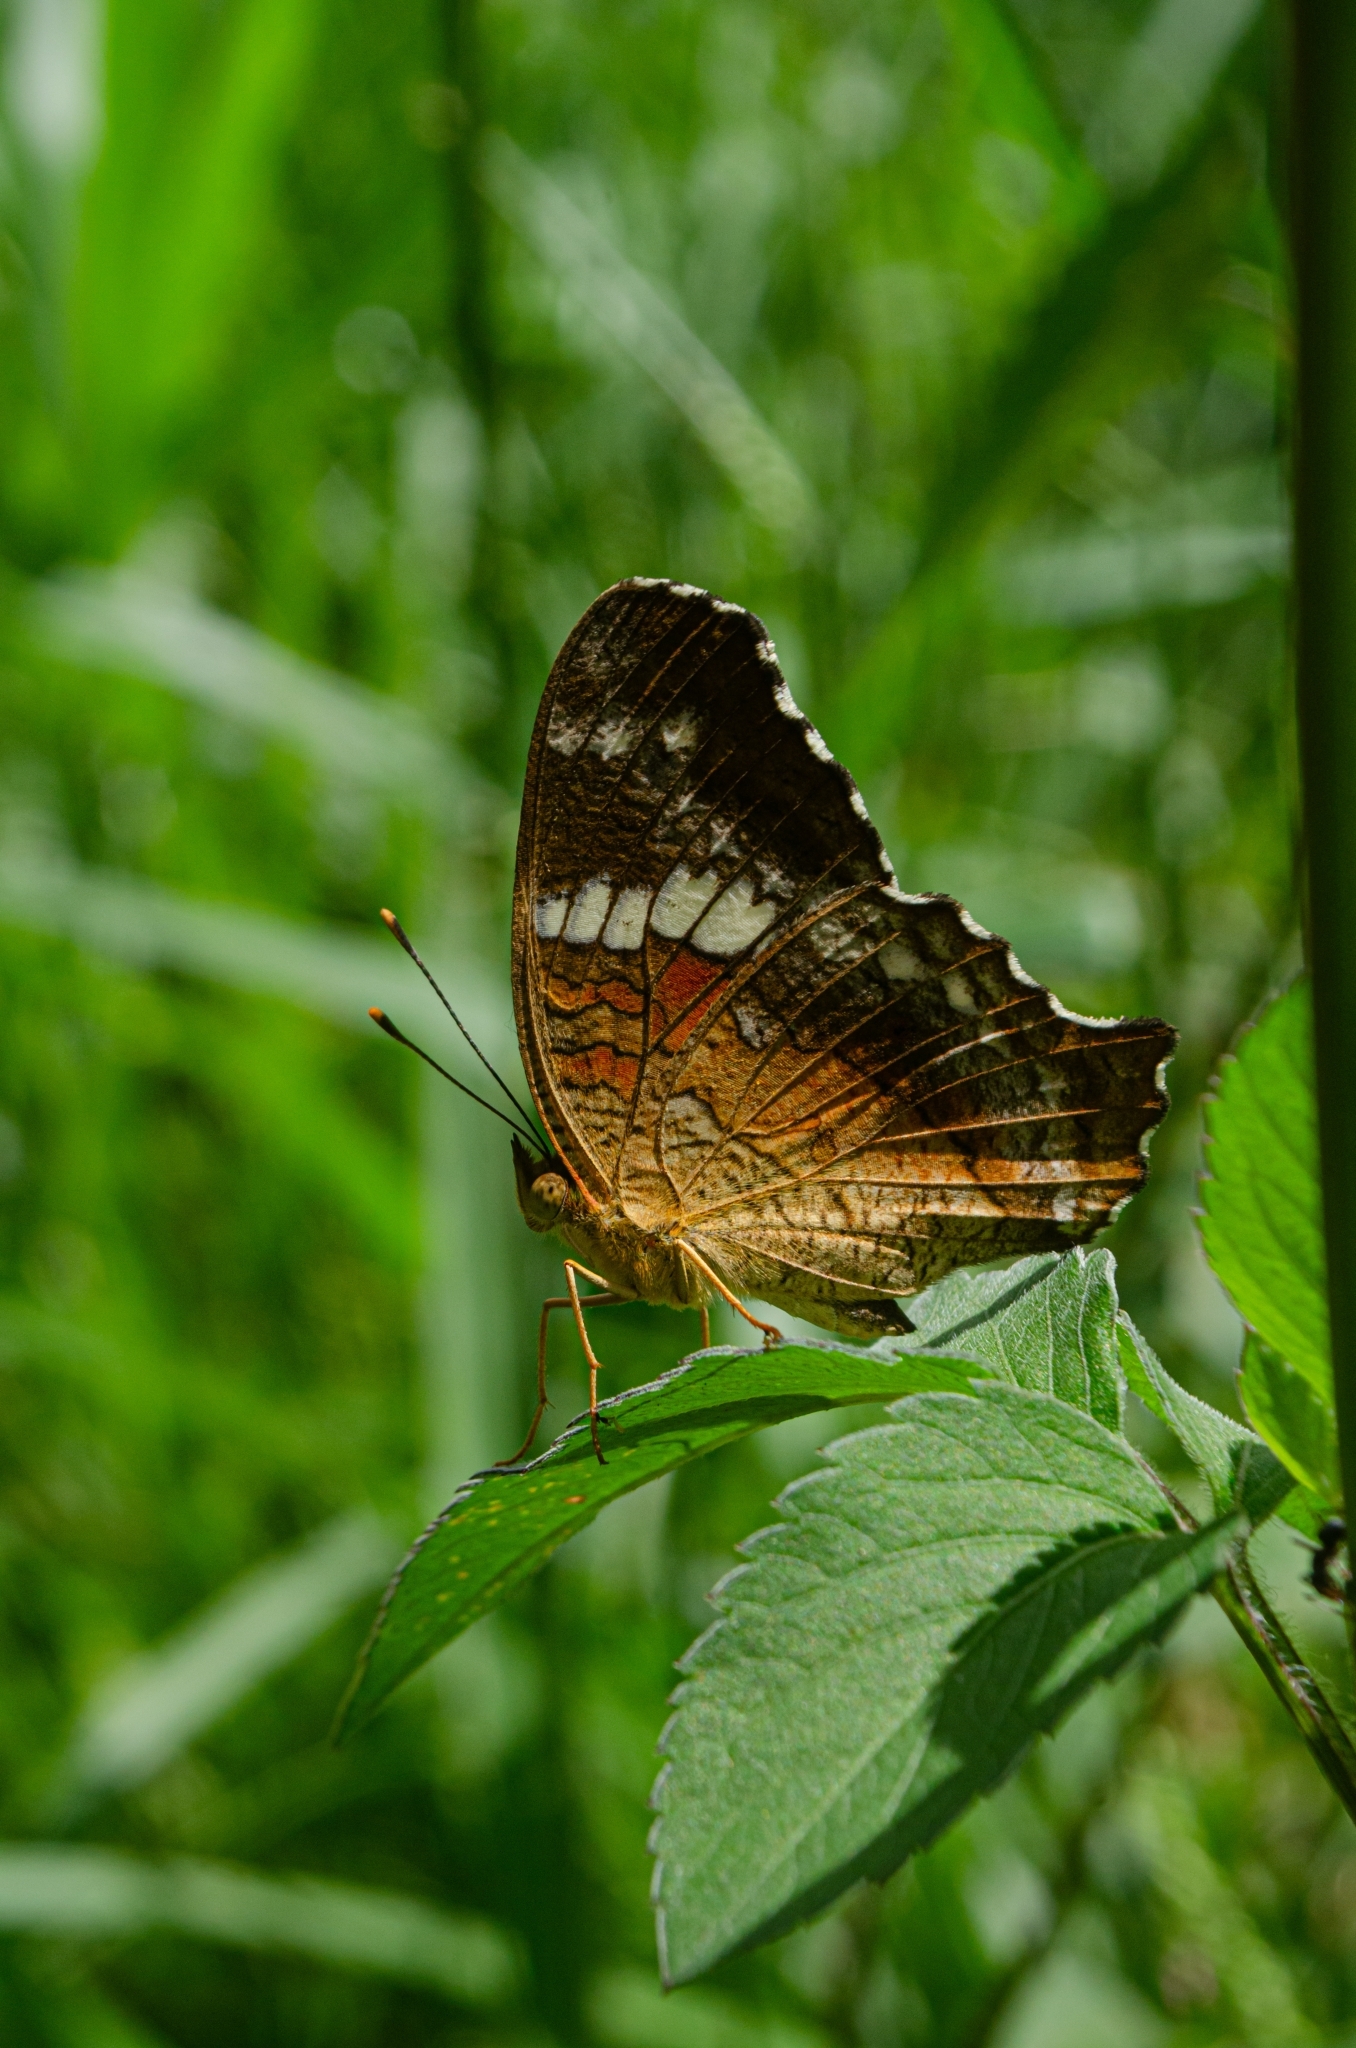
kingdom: Animalia
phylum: Arthropoda
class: Insecta
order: Lepidoptera
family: Nymphalidae
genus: Anartia
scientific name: Anartia amathea
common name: Red peacock
